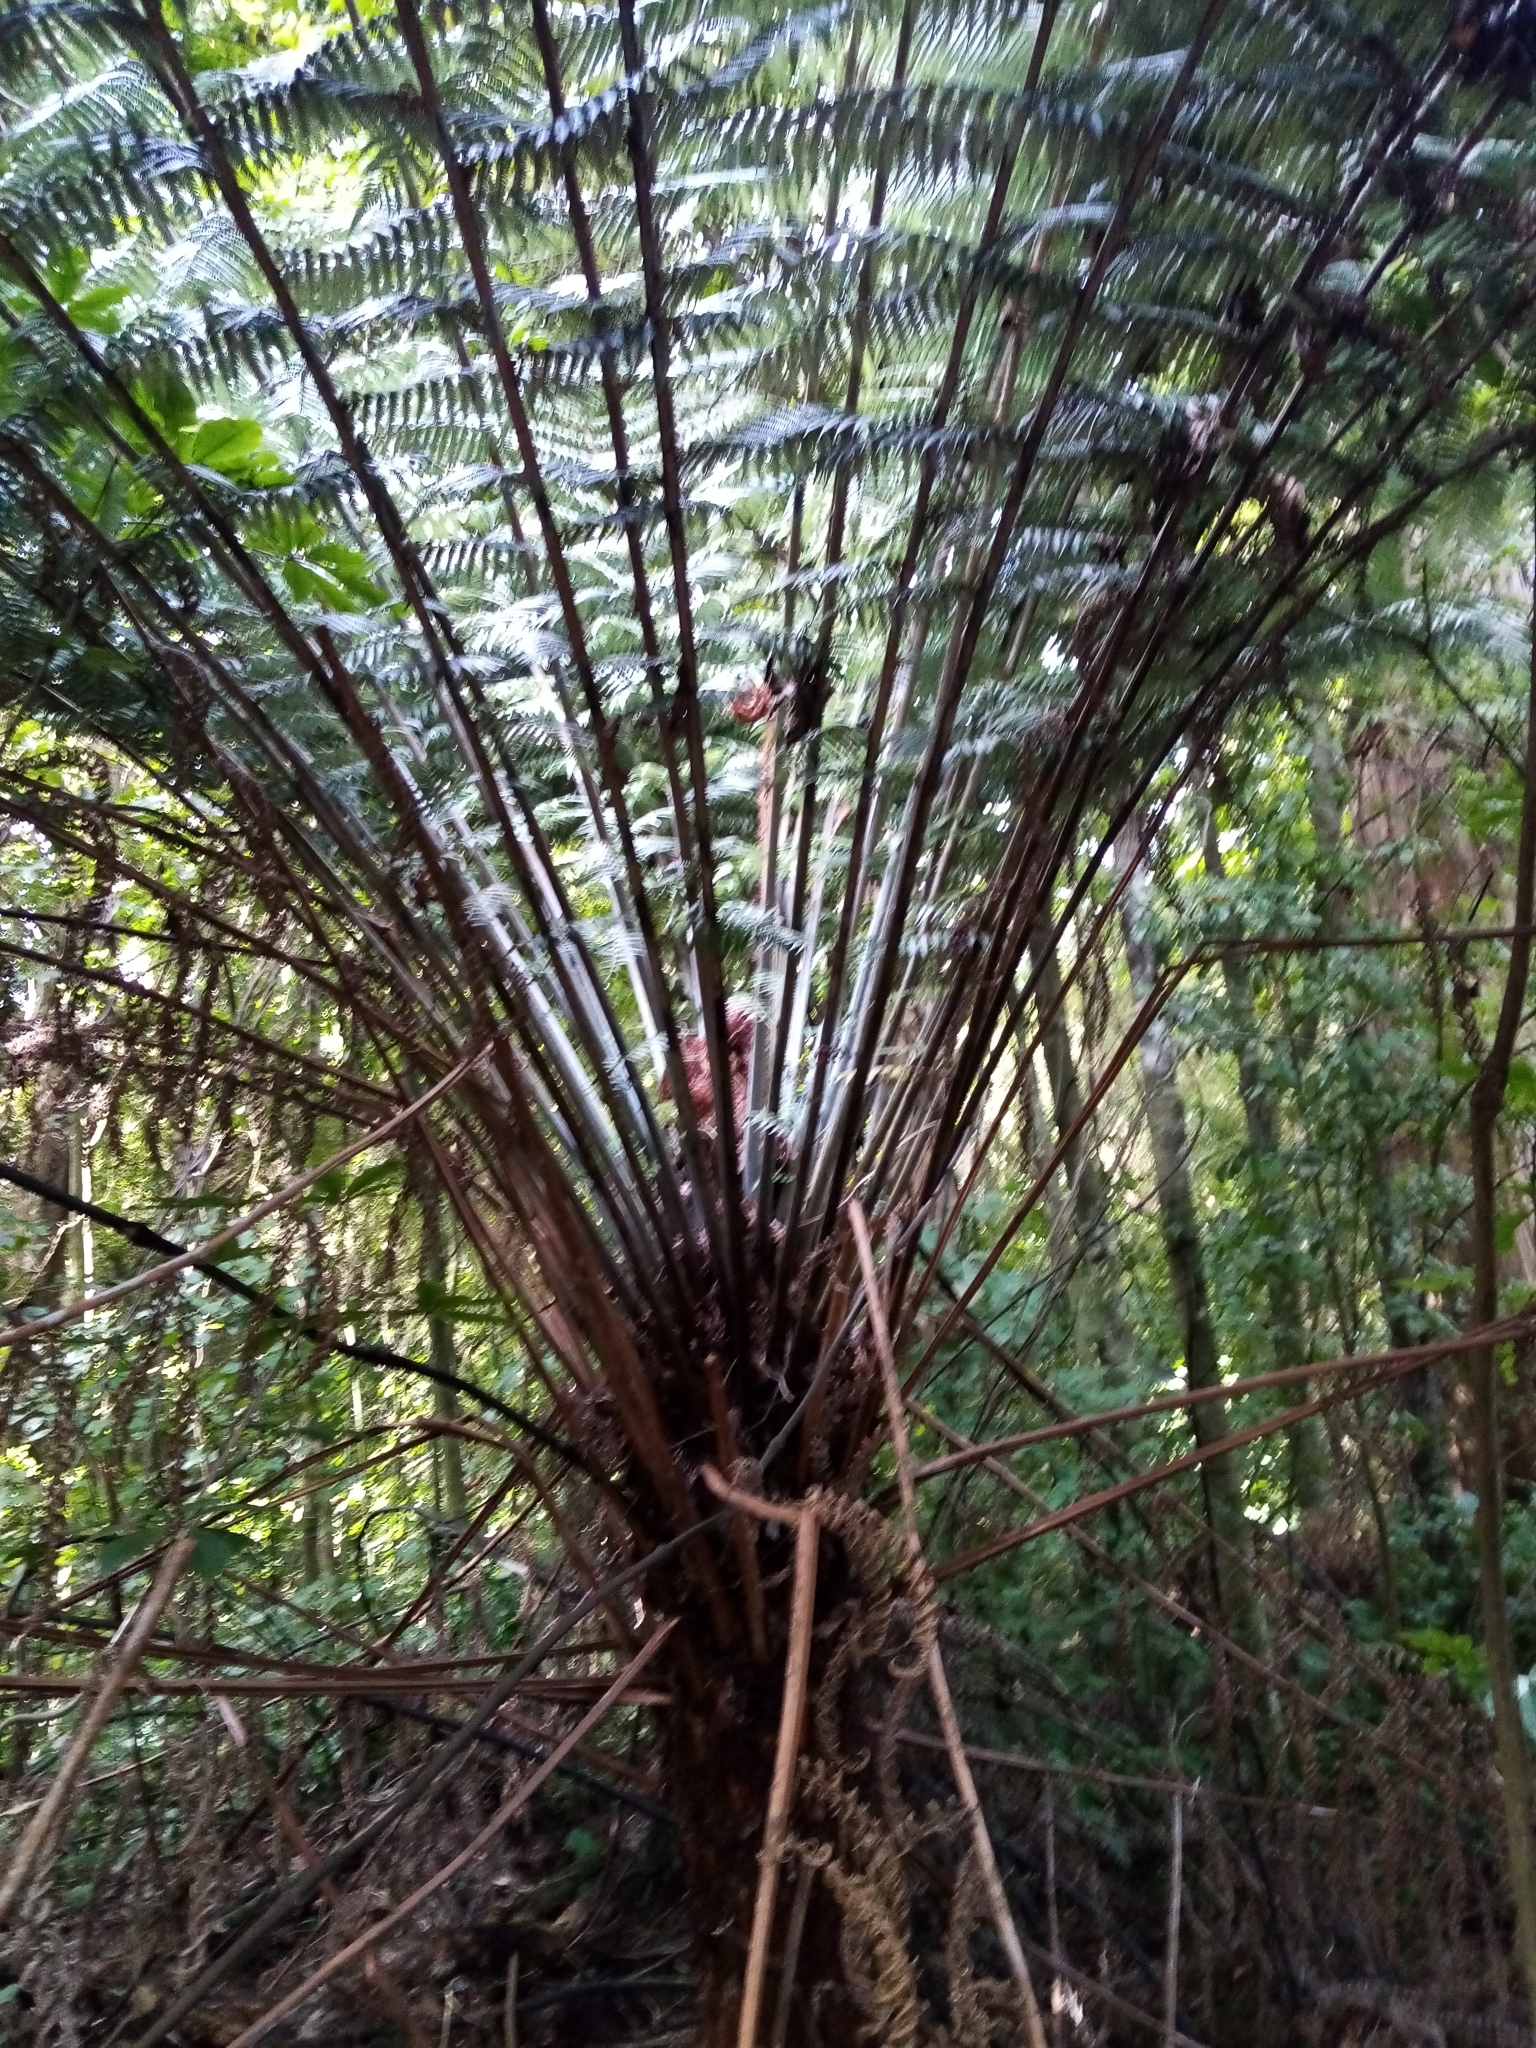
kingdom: Plantae
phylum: Tracheophyta
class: Polypodiopsida
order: Cyatheales
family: Cyatheaceae
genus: Alsophila
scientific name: Alsophila dealbata
